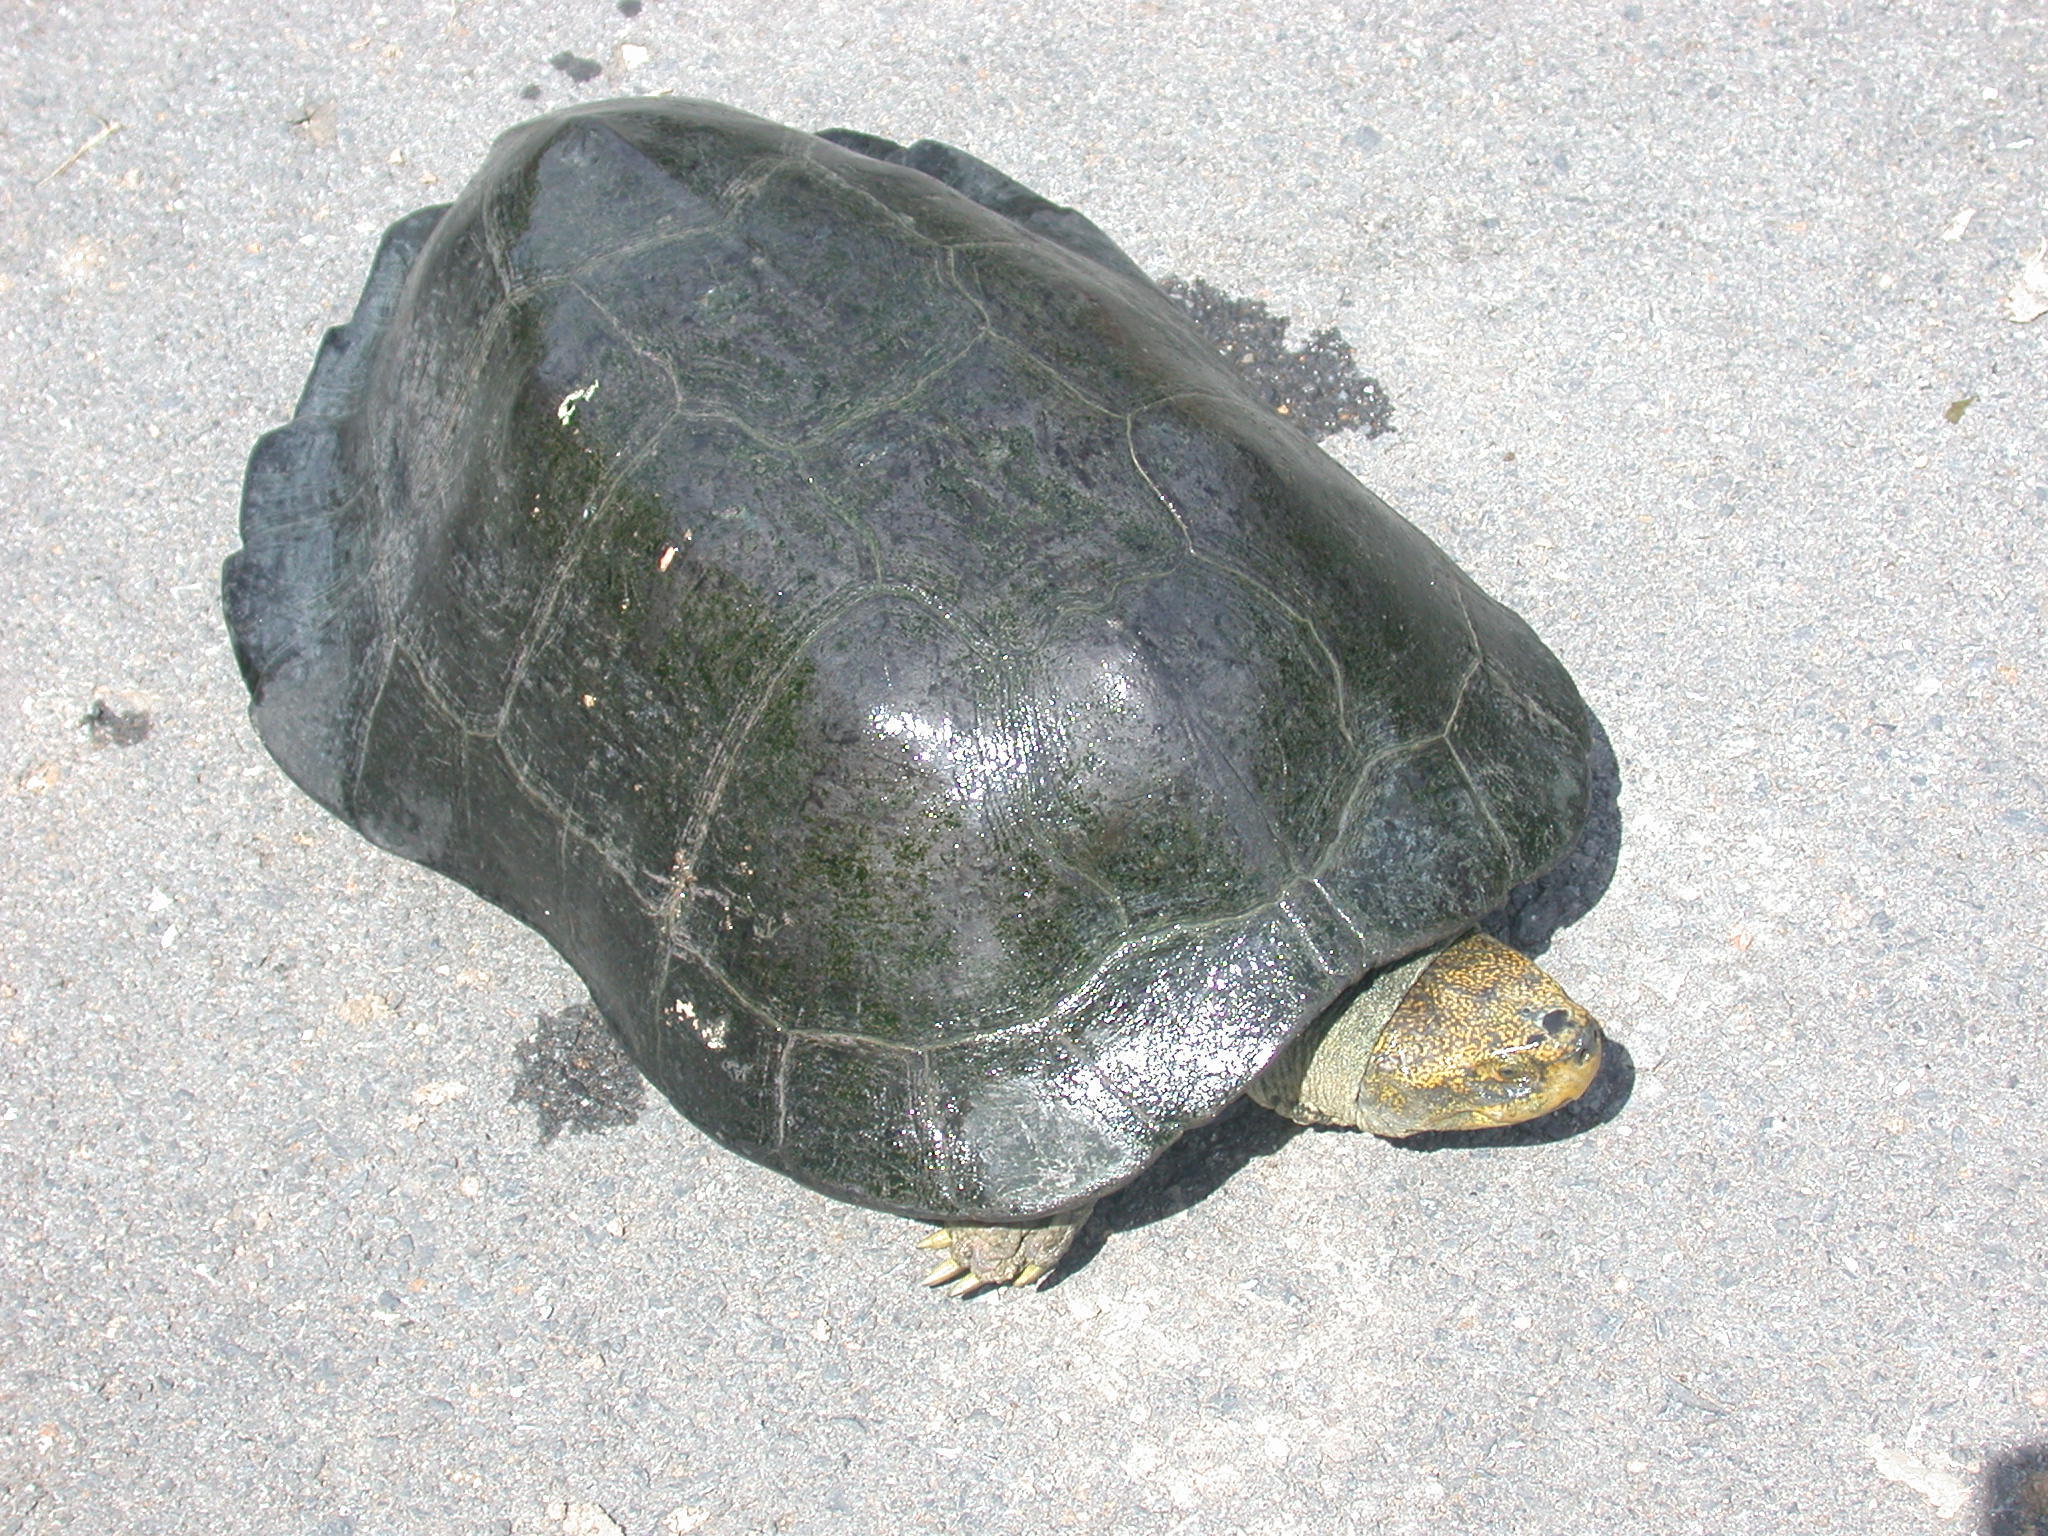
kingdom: Animalia
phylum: Chordata
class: Testudines
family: Geoemydidae
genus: Heosemys
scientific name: Heosemys annandalii
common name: Yellow-headed temple turtle
